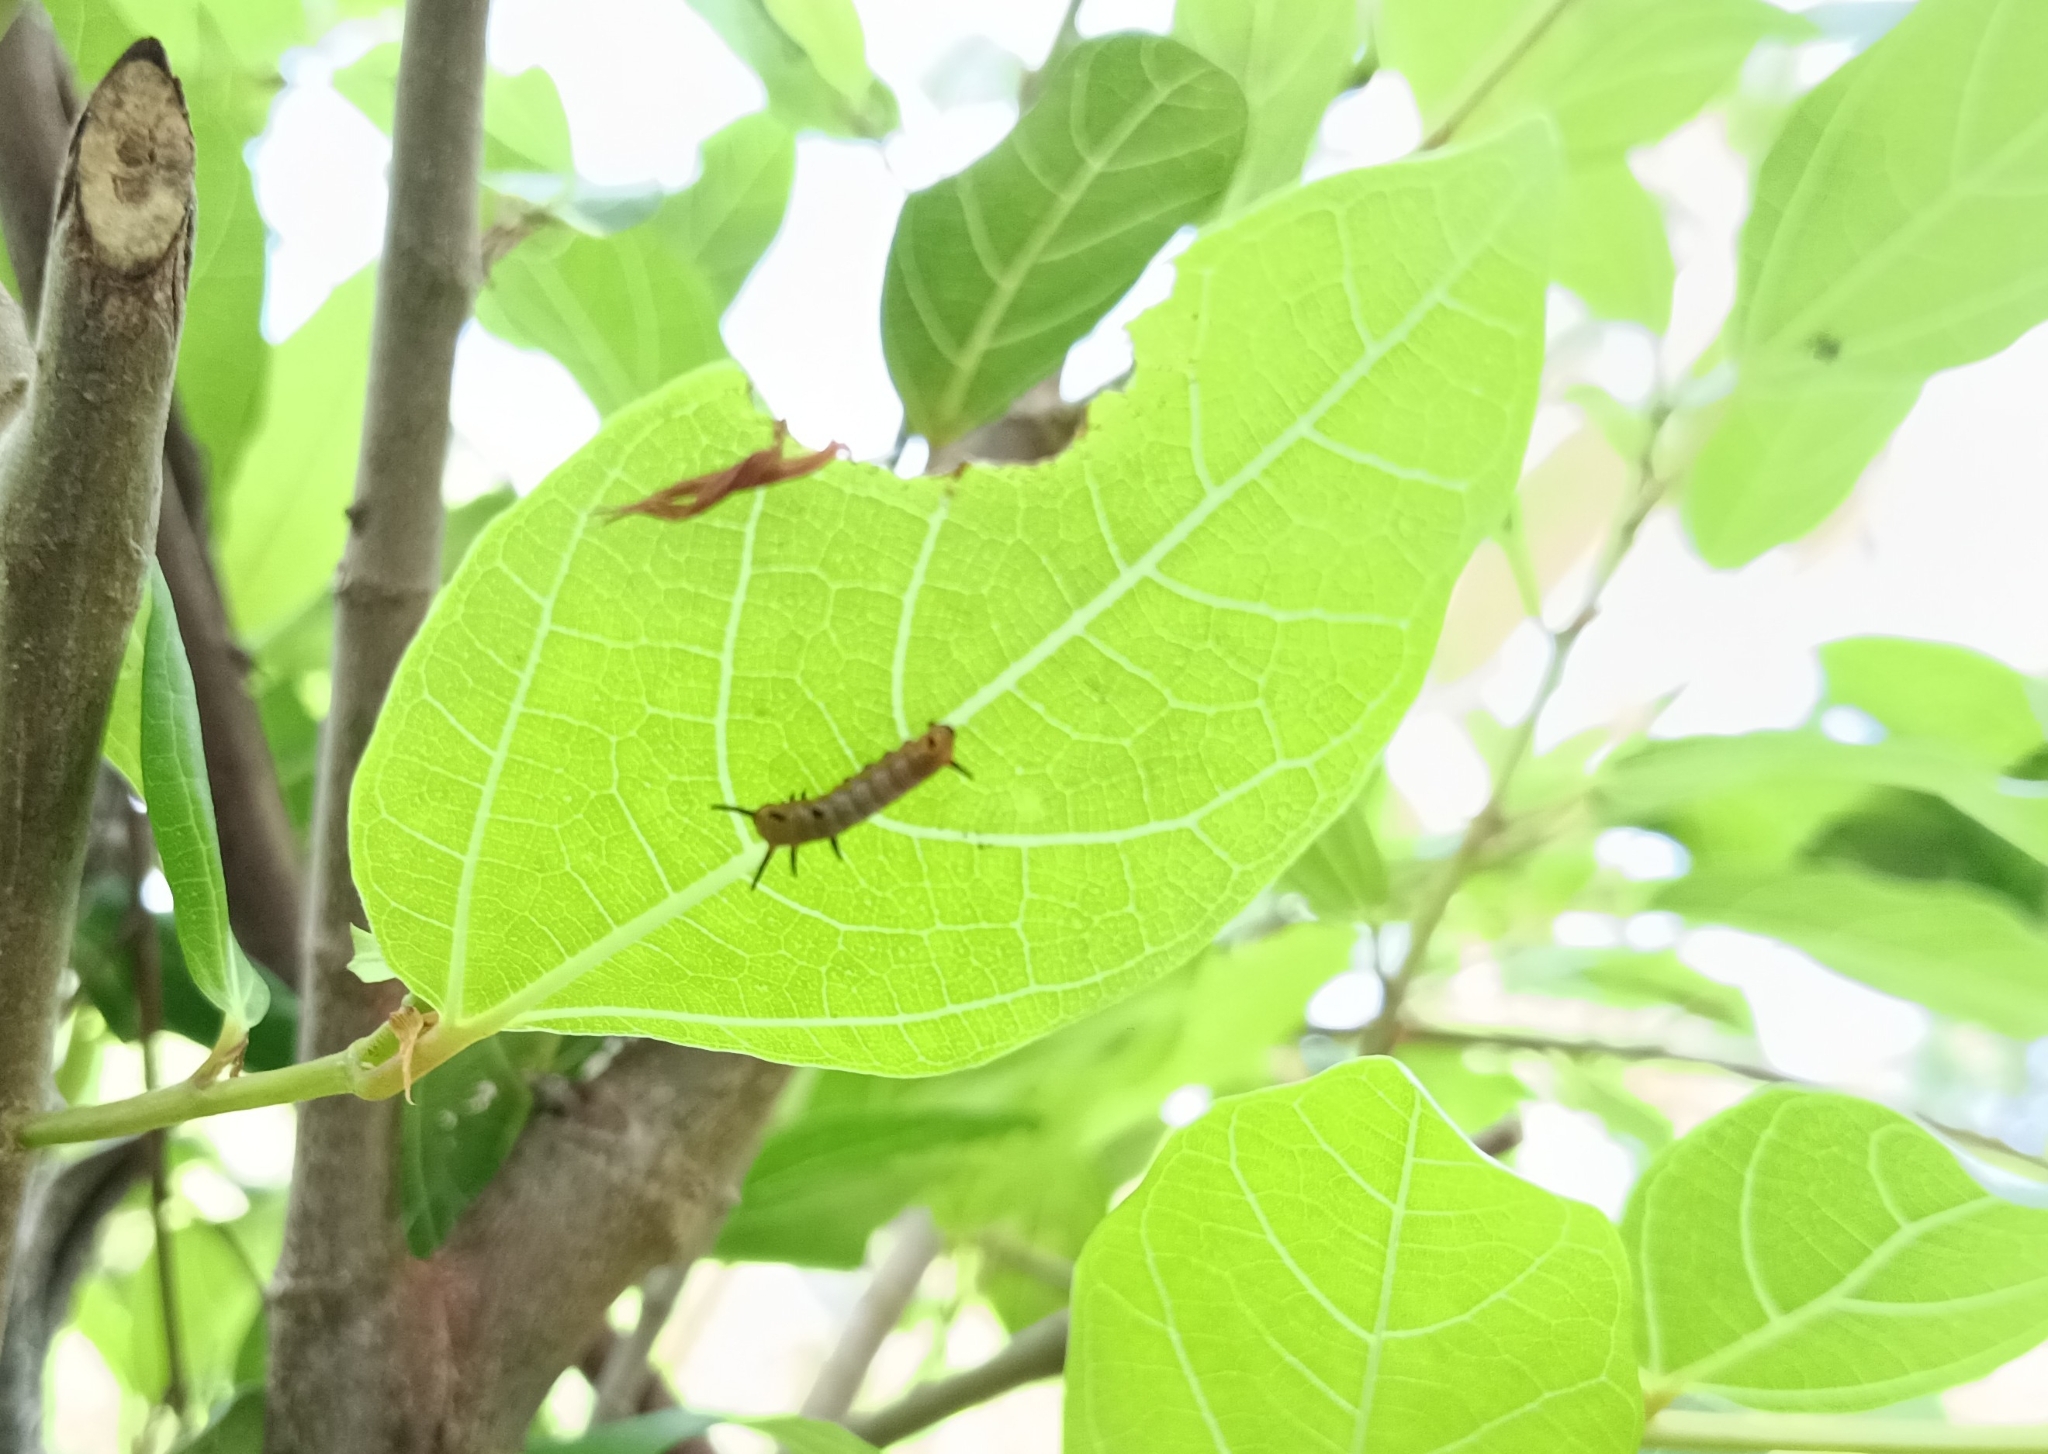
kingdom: Animalia
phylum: Arthropoda
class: Insecta
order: Lepidoptera
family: Nymphalidae
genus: Euploea
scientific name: Euploea core
